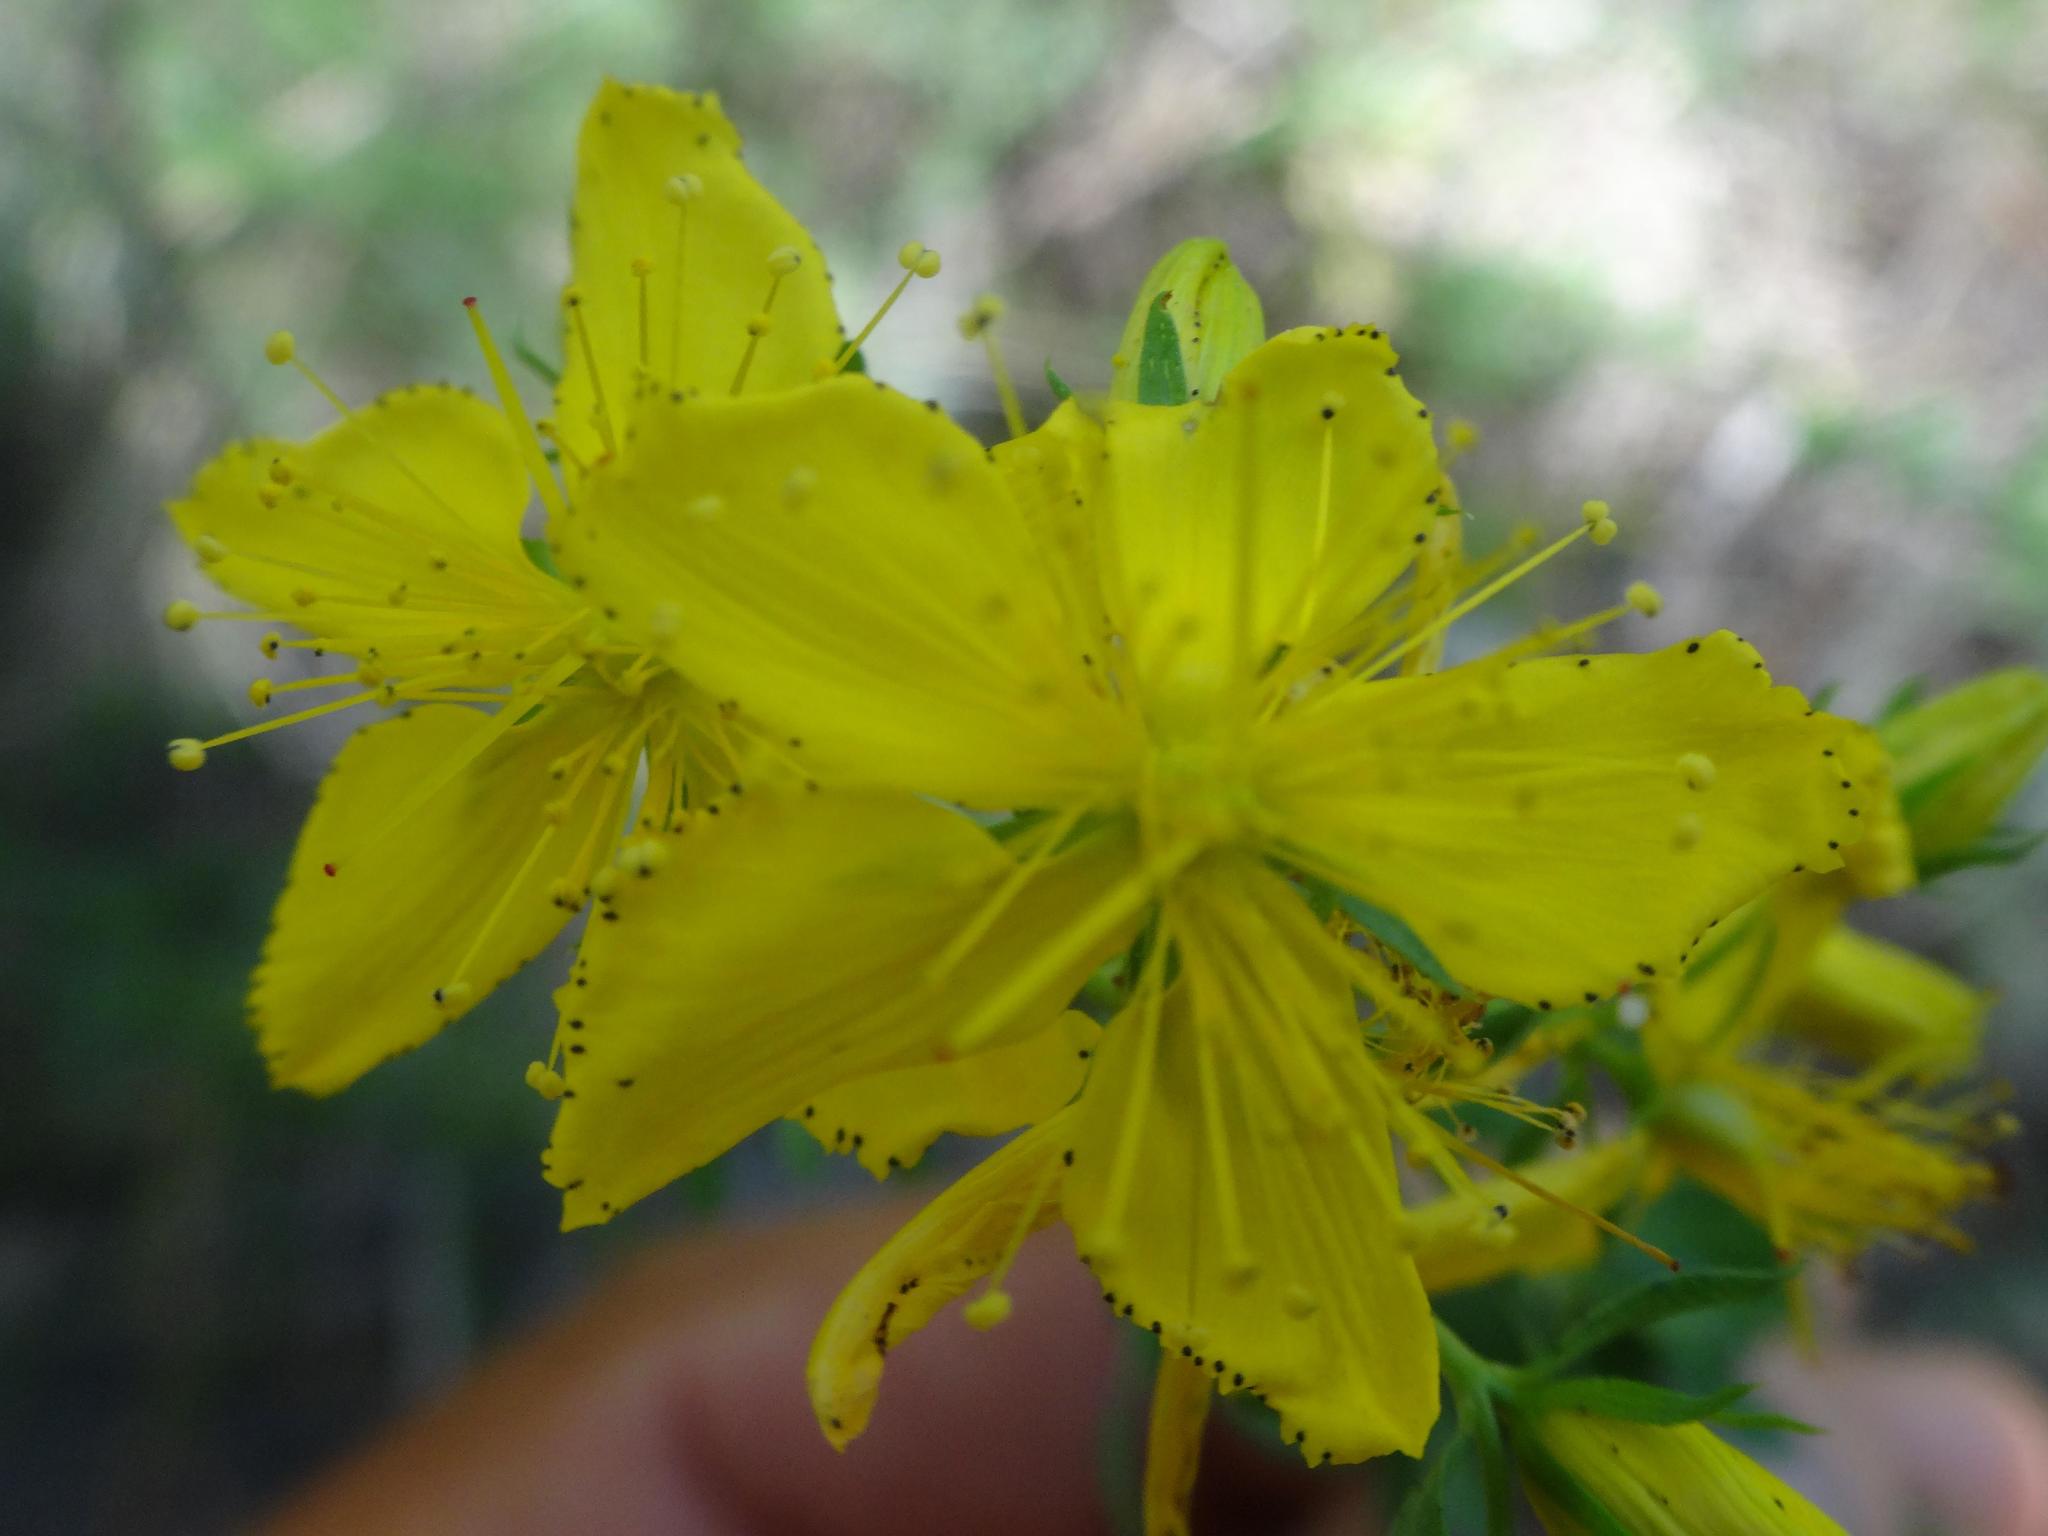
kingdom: Plantae
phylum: Tracheophyta
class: Magnoliopsida
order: Malpighiales
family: Hypericaceae
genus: Hypericum
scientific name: Hypericum perforatum
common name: Common st. johnswort
